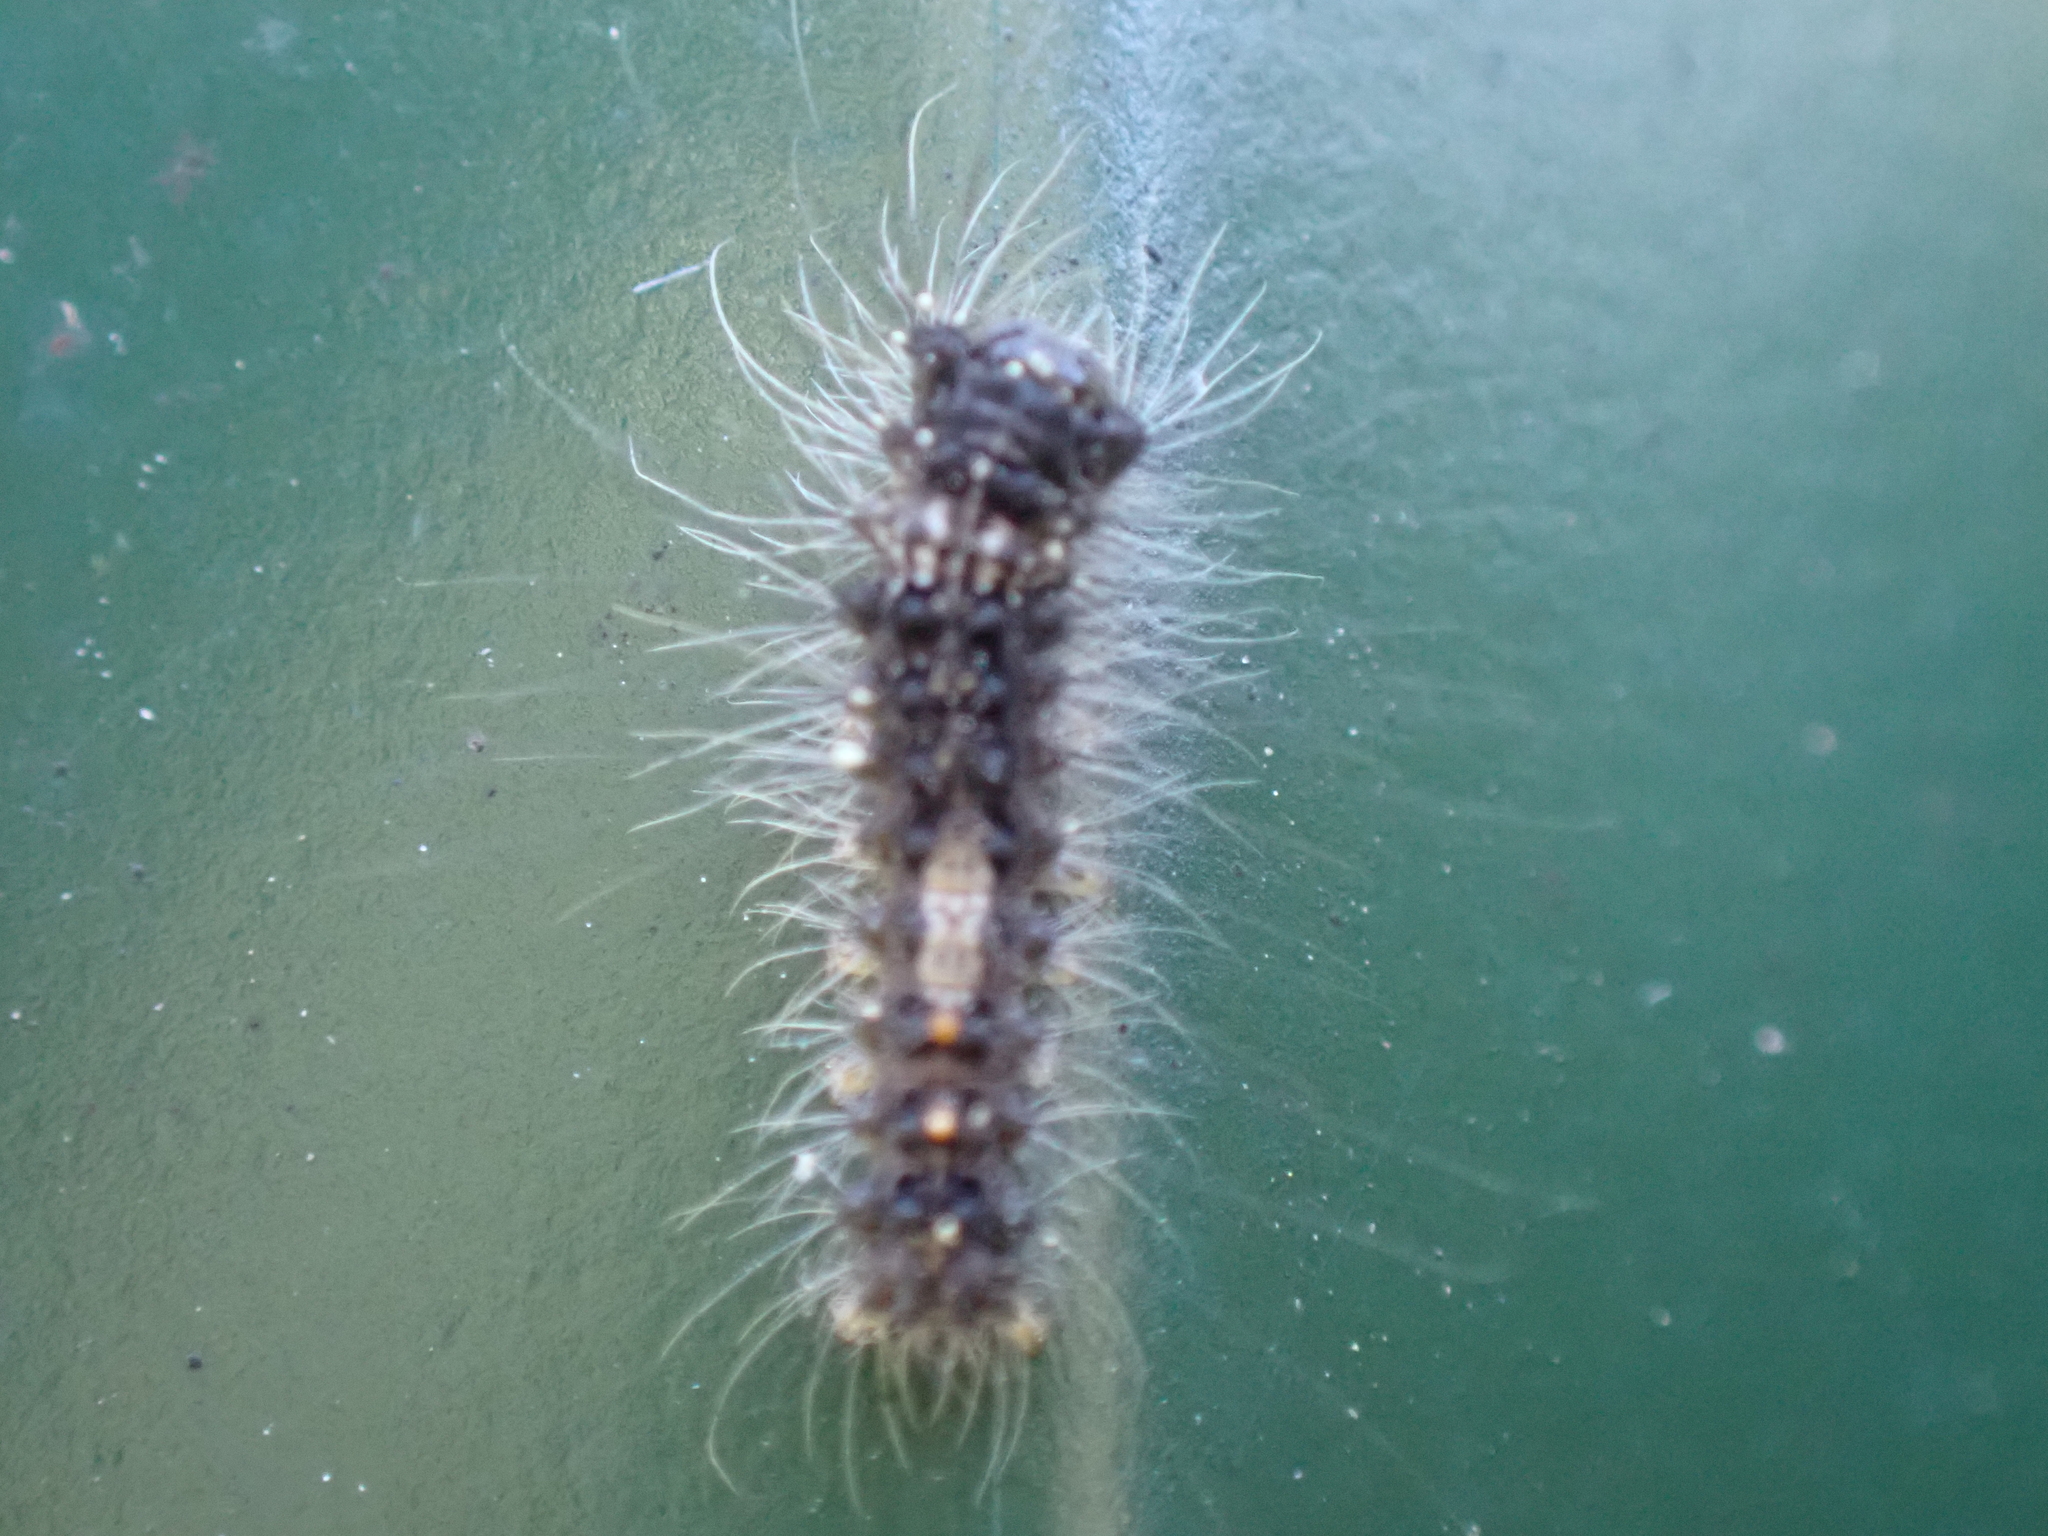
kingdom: Animalia
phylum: Arthropoda
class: Insecta
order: Lepidoptera
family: Erebidae
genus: Lymantria
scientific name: Lymantria monacha
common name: Black arches
